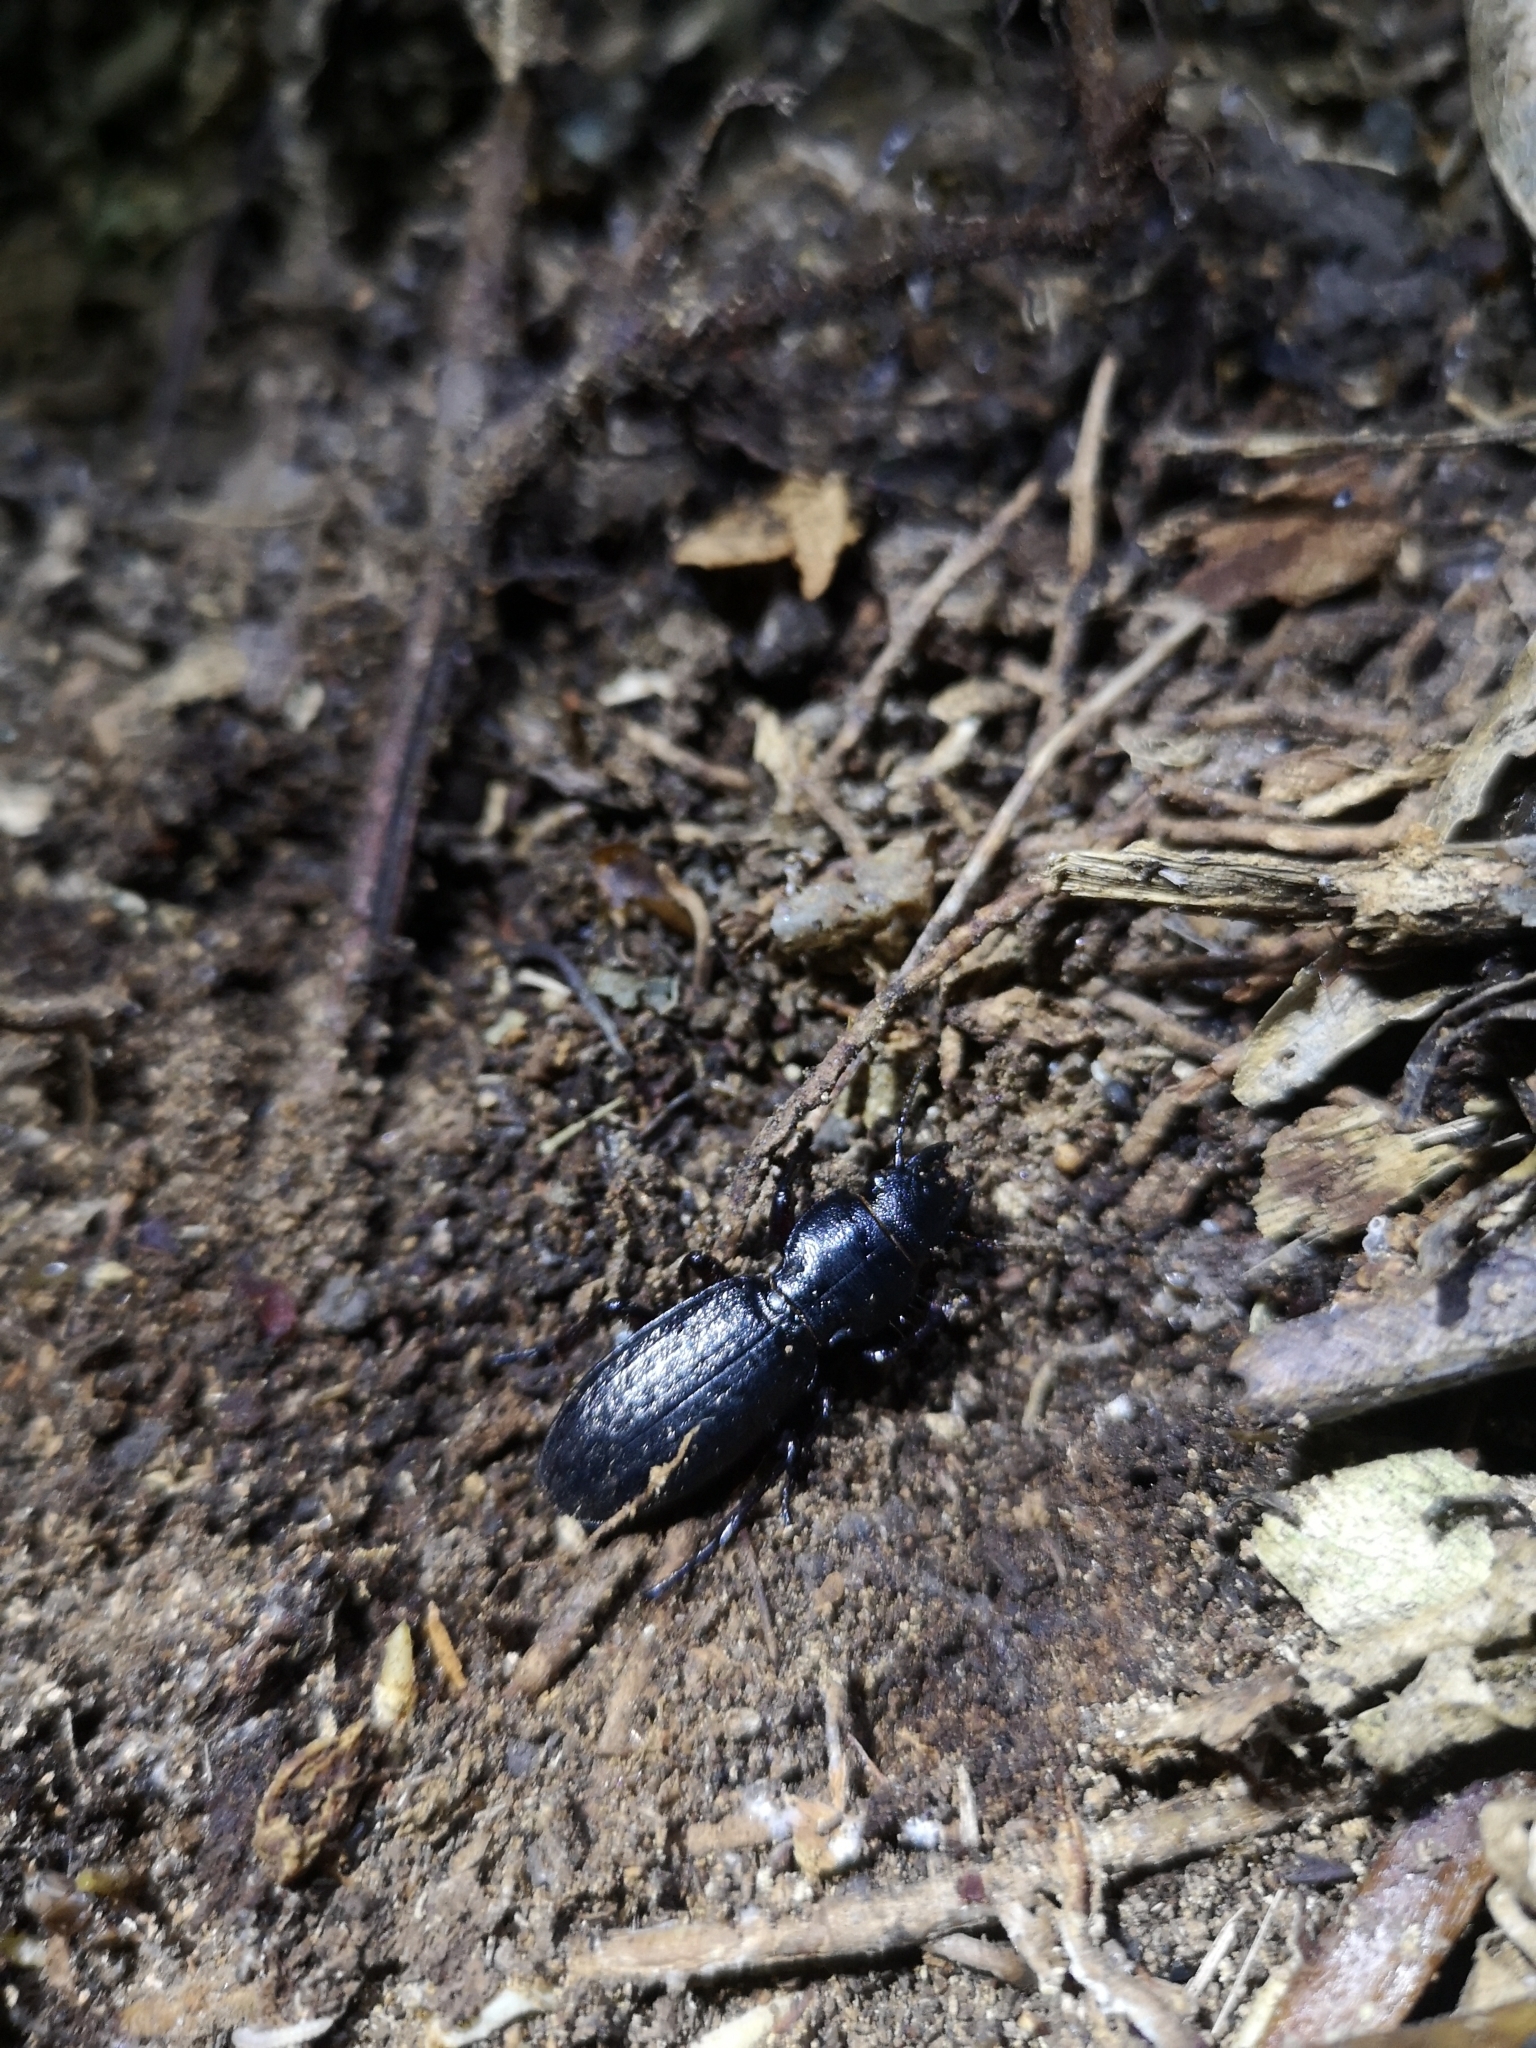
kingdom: Animalia
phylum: Arthropoda
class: Insecta
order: Coleoptera
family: Carabidae
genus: Mecodema
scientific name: Mecodema sculpturatum
